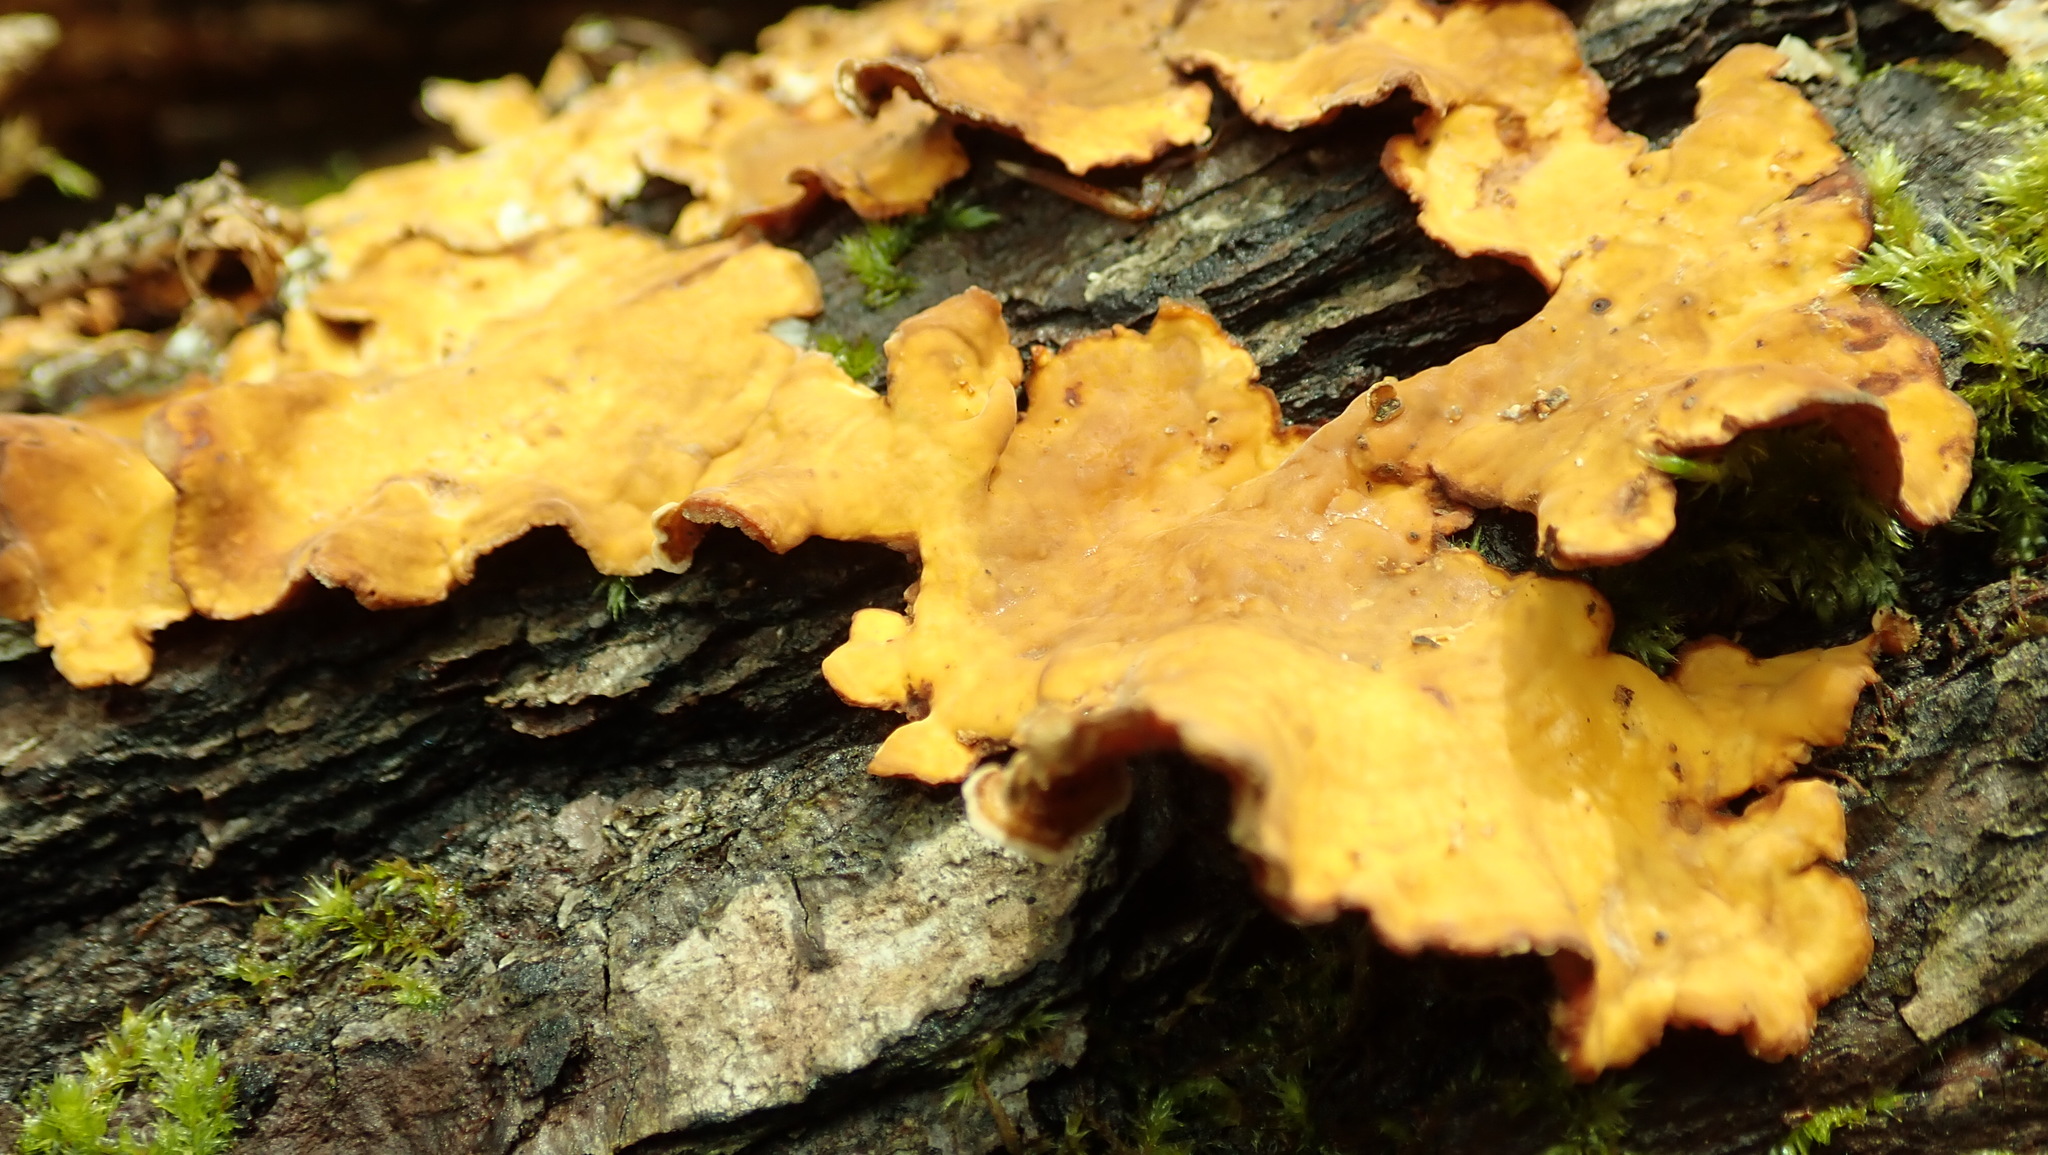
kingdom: Fungi
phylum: Basidiomycota
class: Agaricomycetes
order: Russulales
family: Stereaceae
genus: Stereum
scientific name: Stereum hirsutum
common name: Hairy curtain crust
